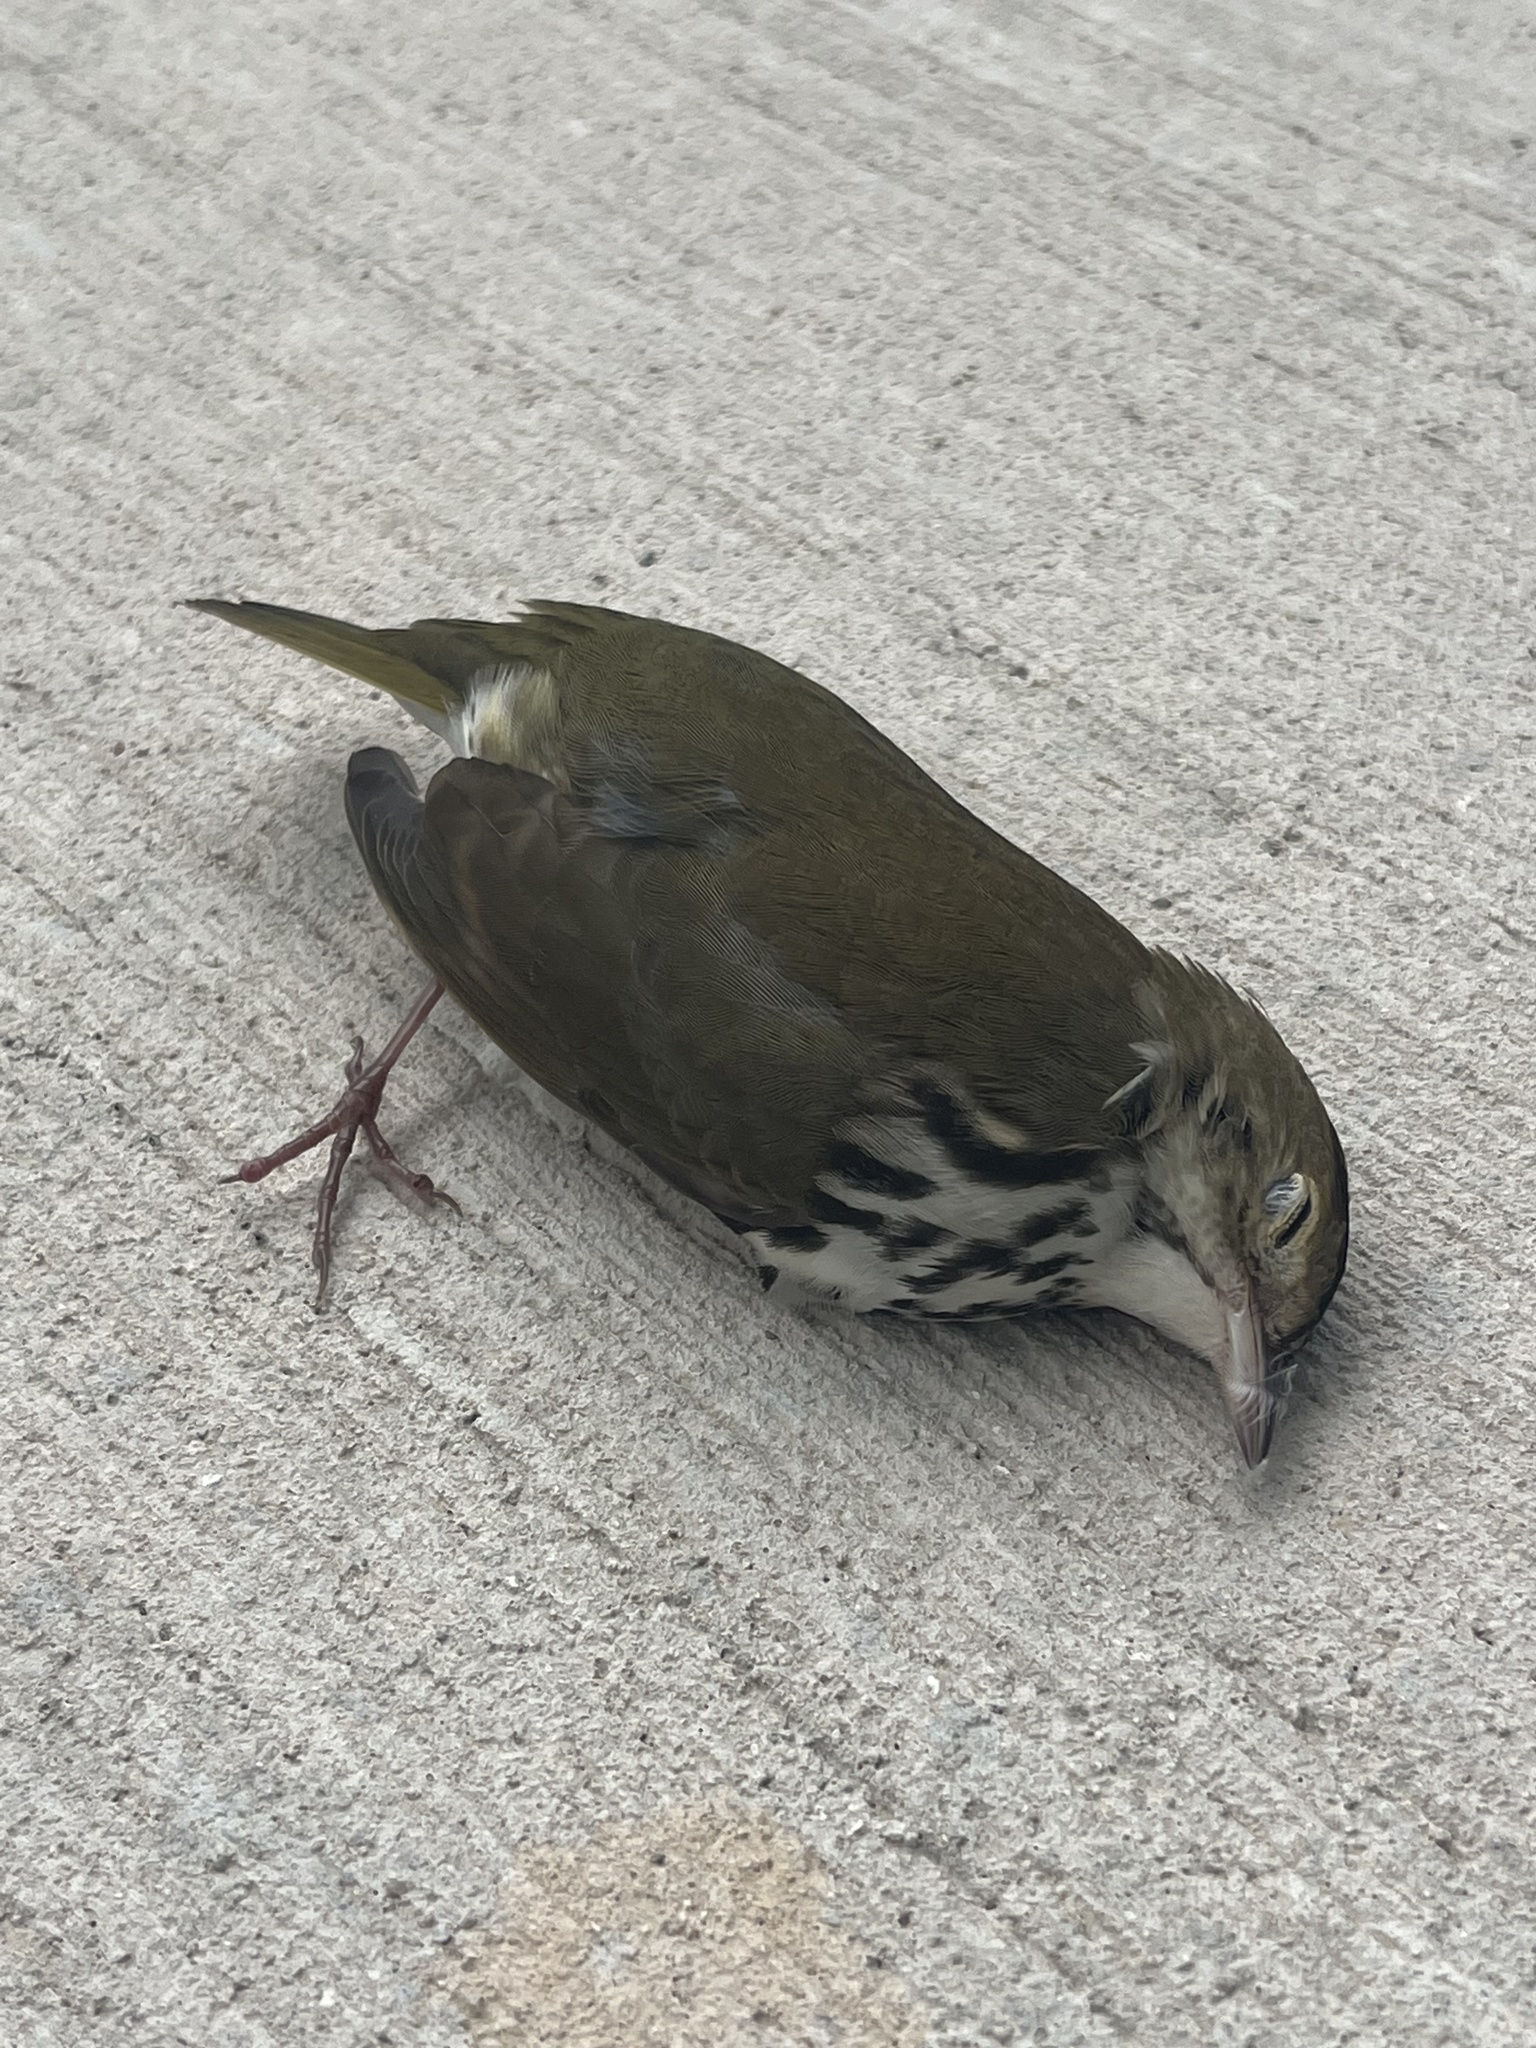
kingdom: Animalia
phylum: Chordata
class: Aves
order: Passeriformes
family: Parulidae
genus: Seiurus
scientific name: Seiurus aurocapilla
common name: Ovenbird
